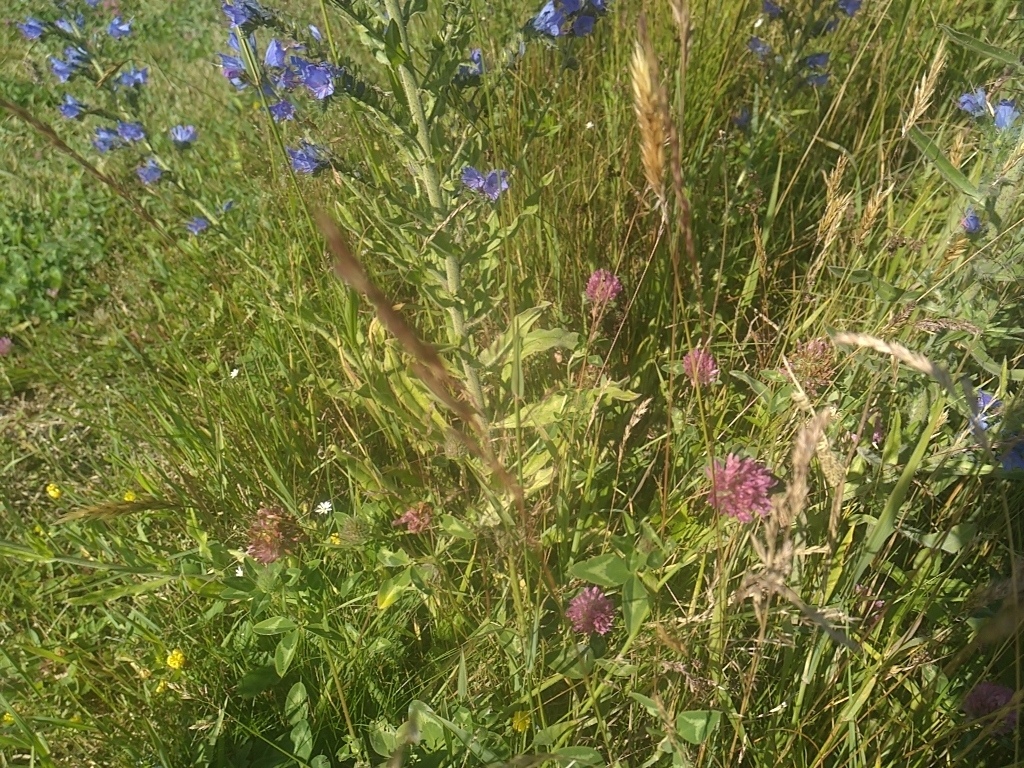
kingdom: Plantae
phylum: Tracheophyta
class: Magnoliopsida
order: Fabales
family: Fabaceae
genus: Trifolium
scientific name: Trifolium pratense
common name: Red clover
